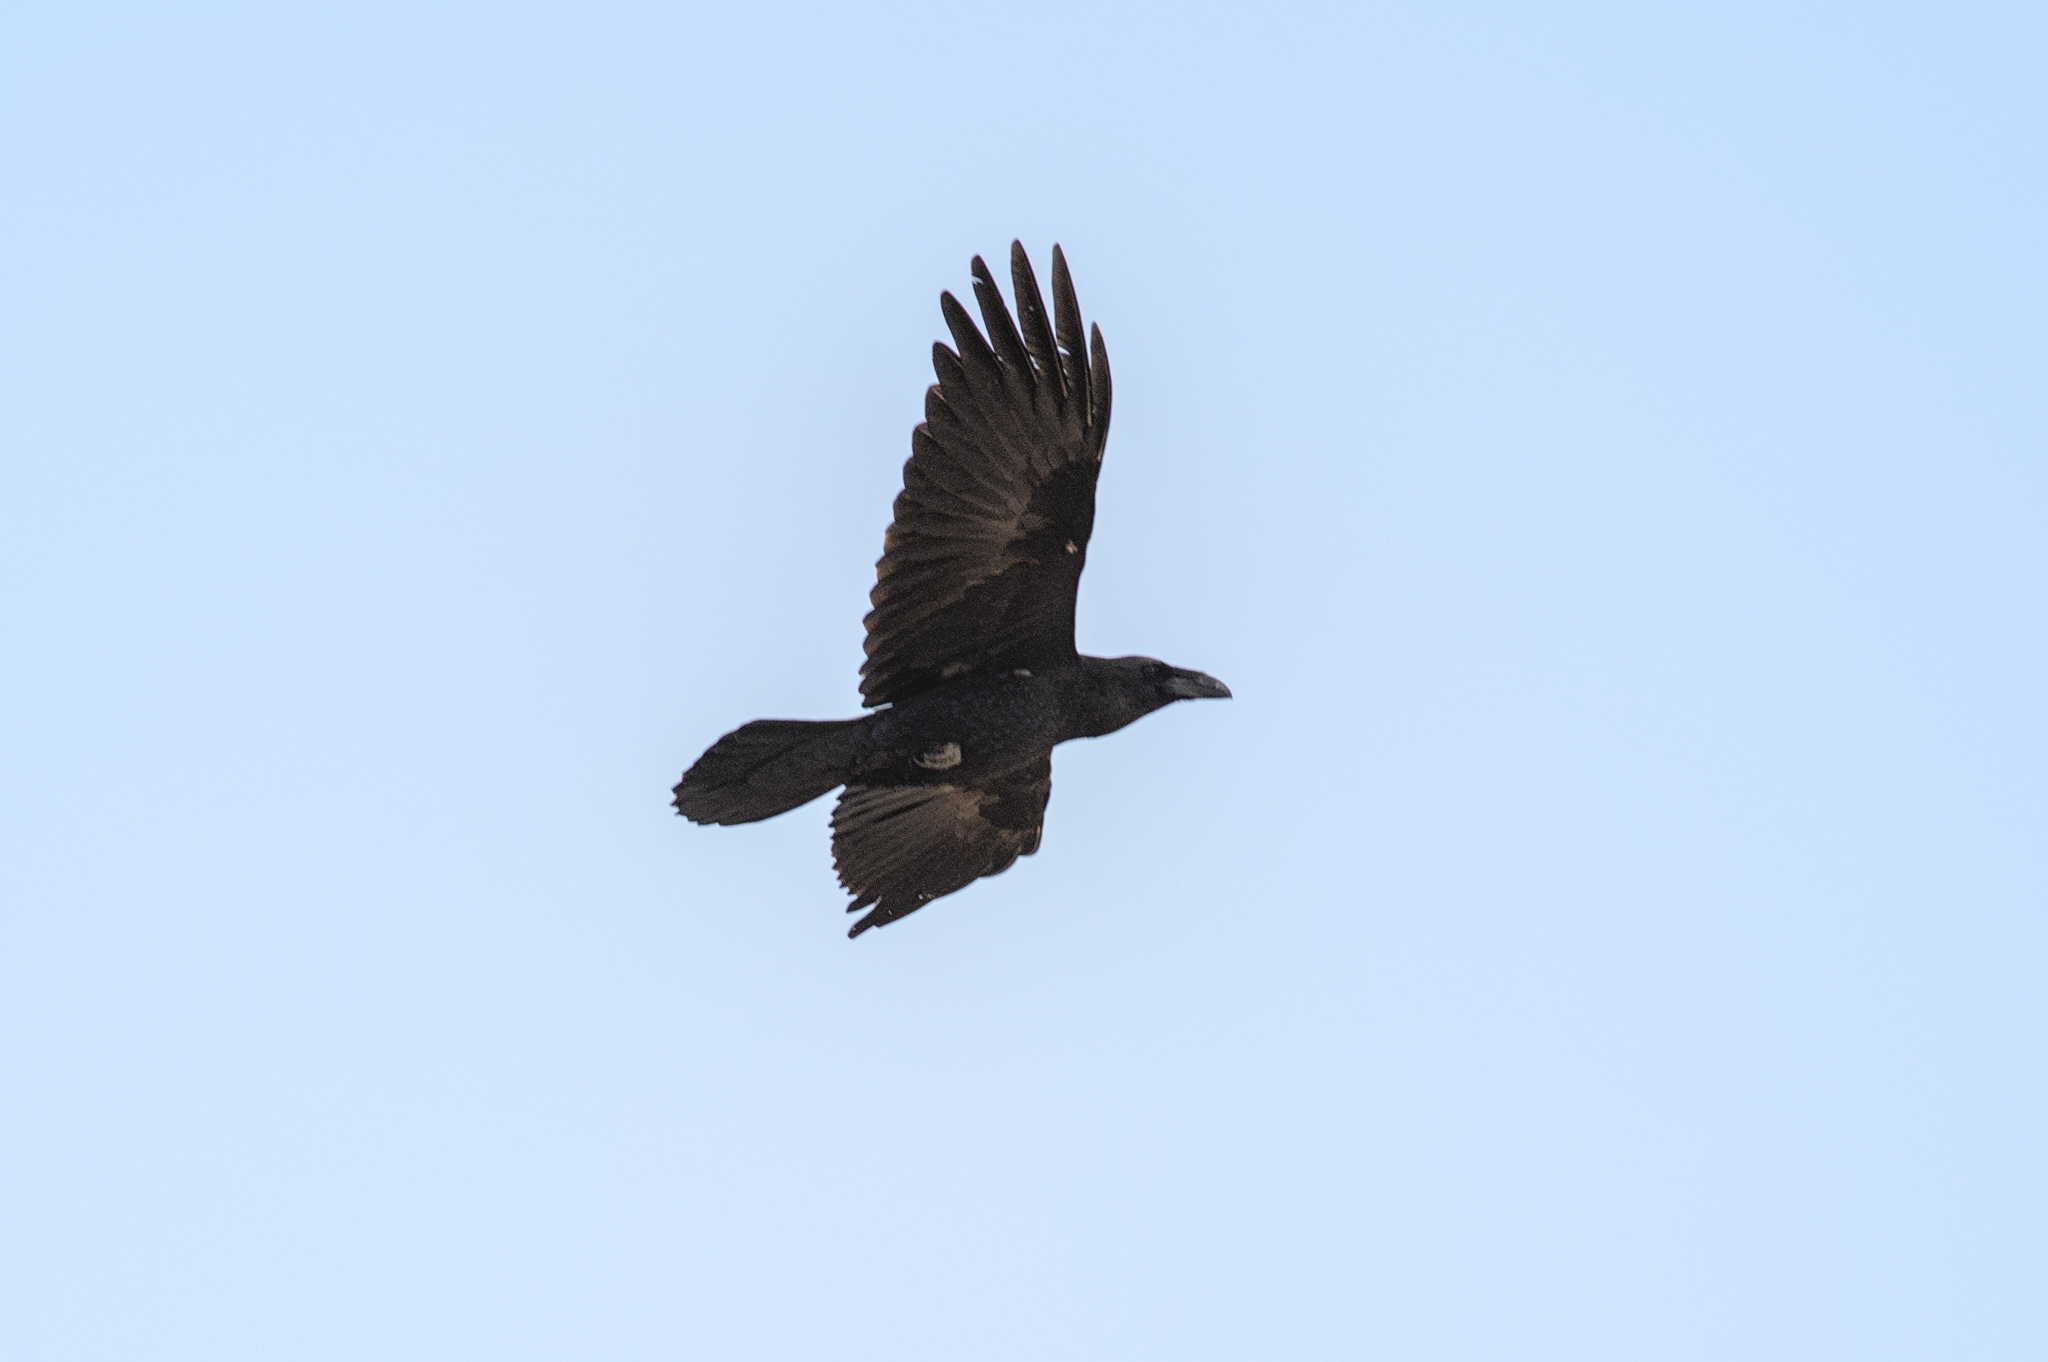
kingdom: Animalia
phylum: Chordata
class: Aves
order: Passeriformes
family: Corvidae
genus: Corvus
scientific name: Corvus corax
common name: Common raven
